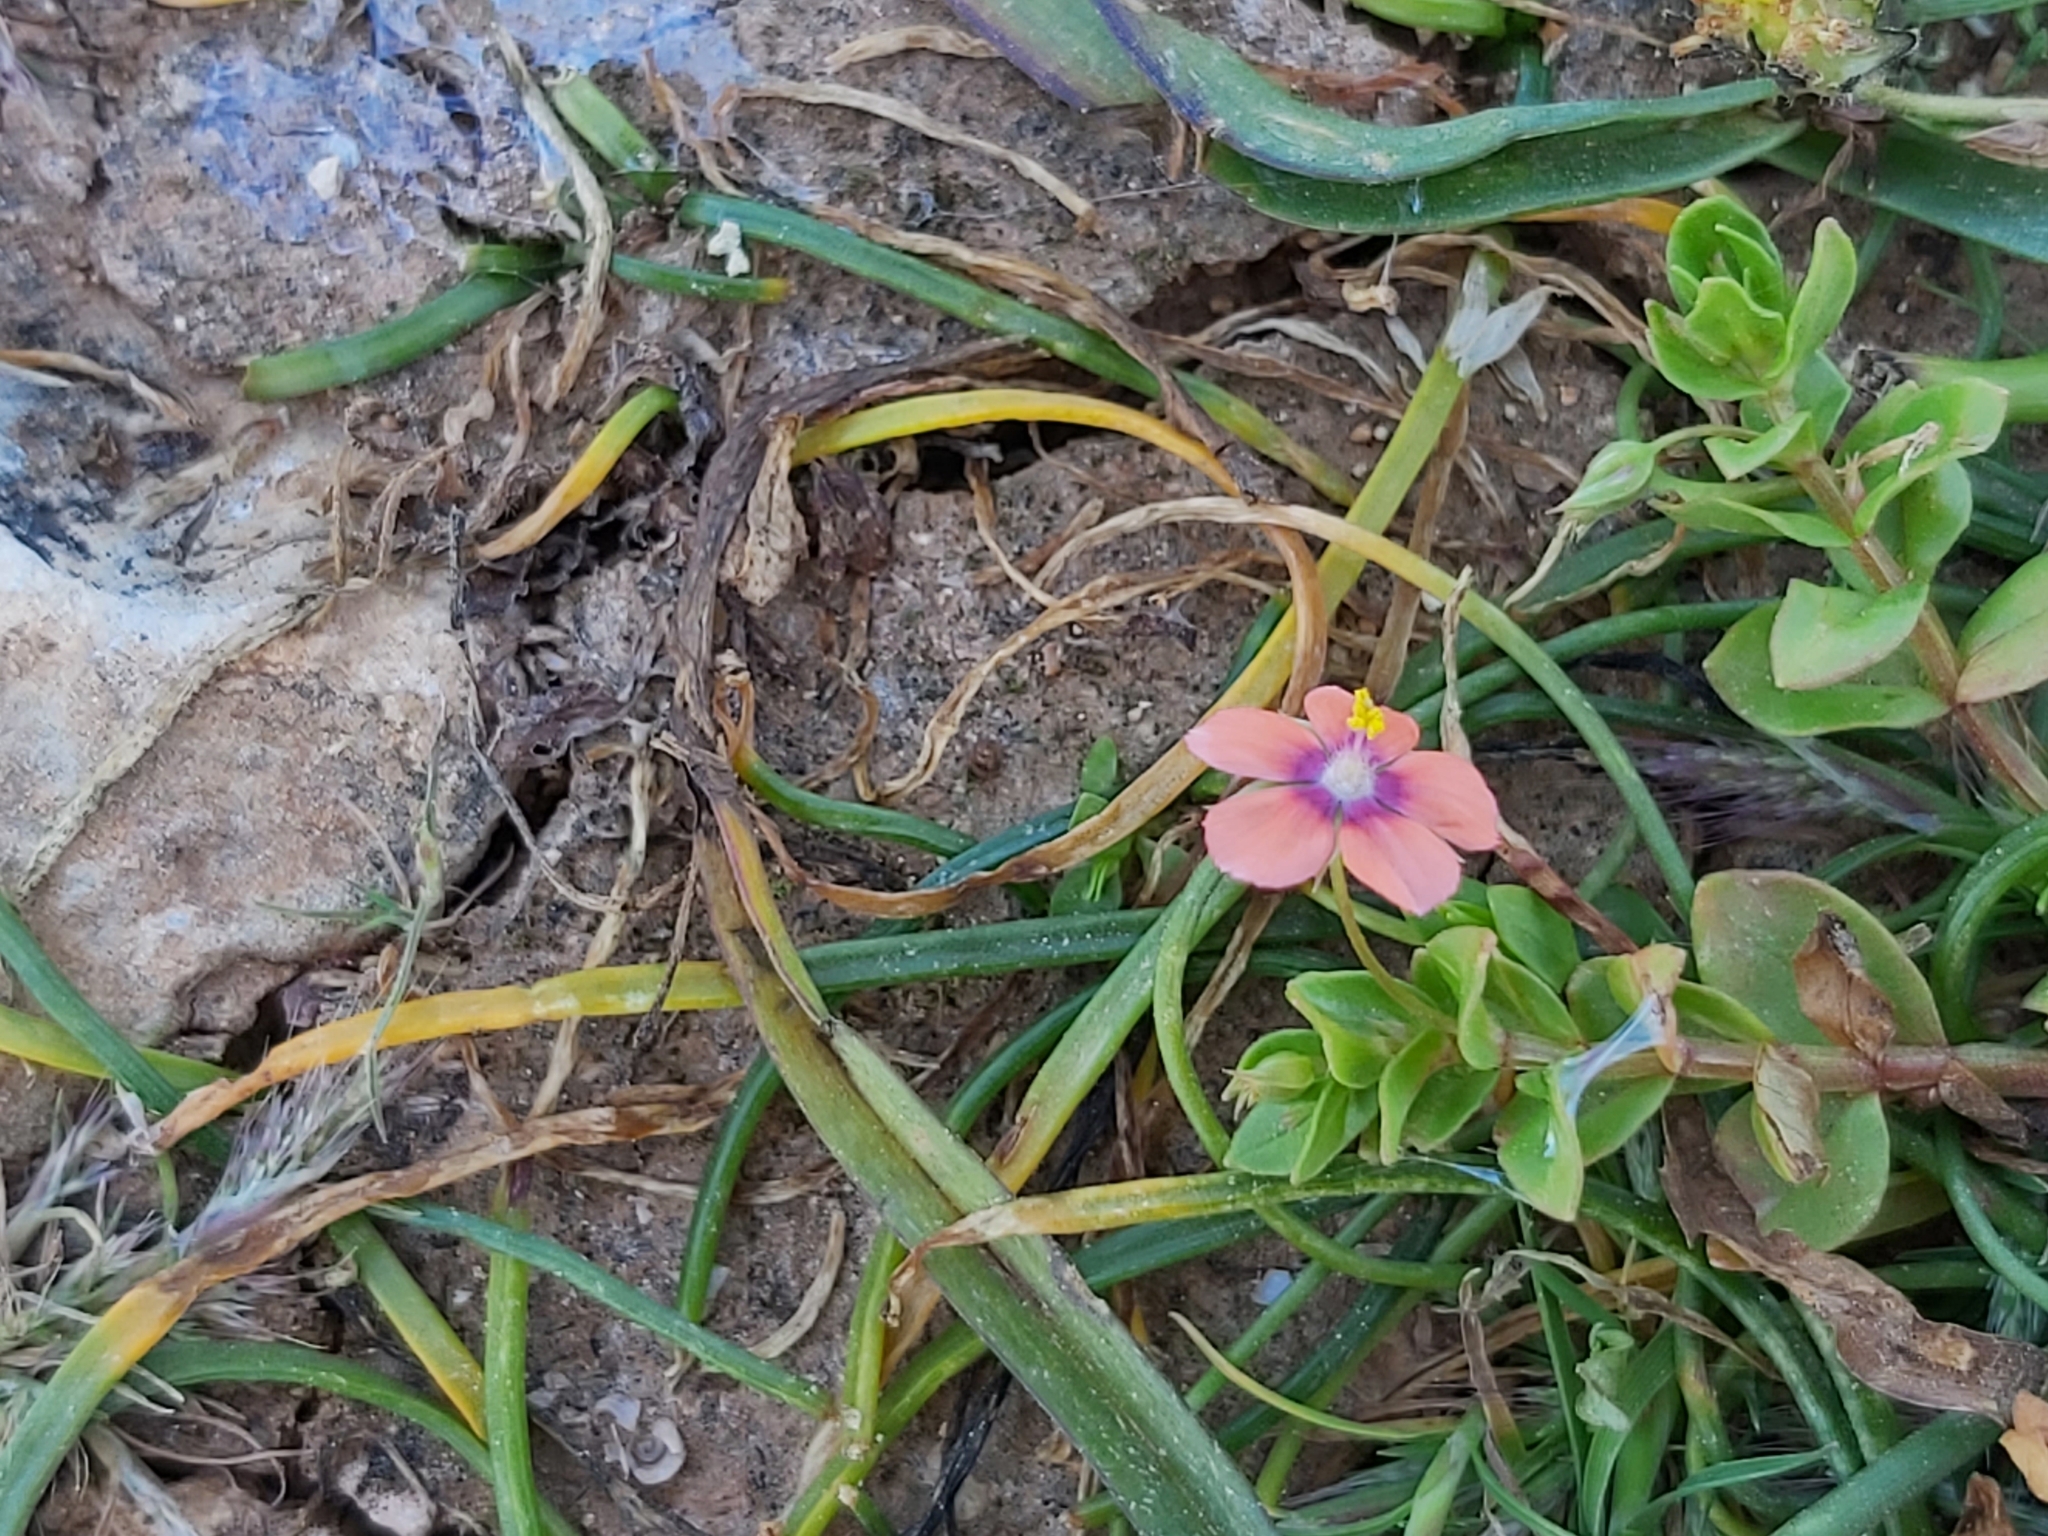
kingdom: Plantae
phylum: Tracheophyta
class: Magnoliopsida
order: Ericales
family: Primulaceae
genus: Lysimachia
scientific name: Lysimachia arvensis
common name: Scarlet pimpernel
